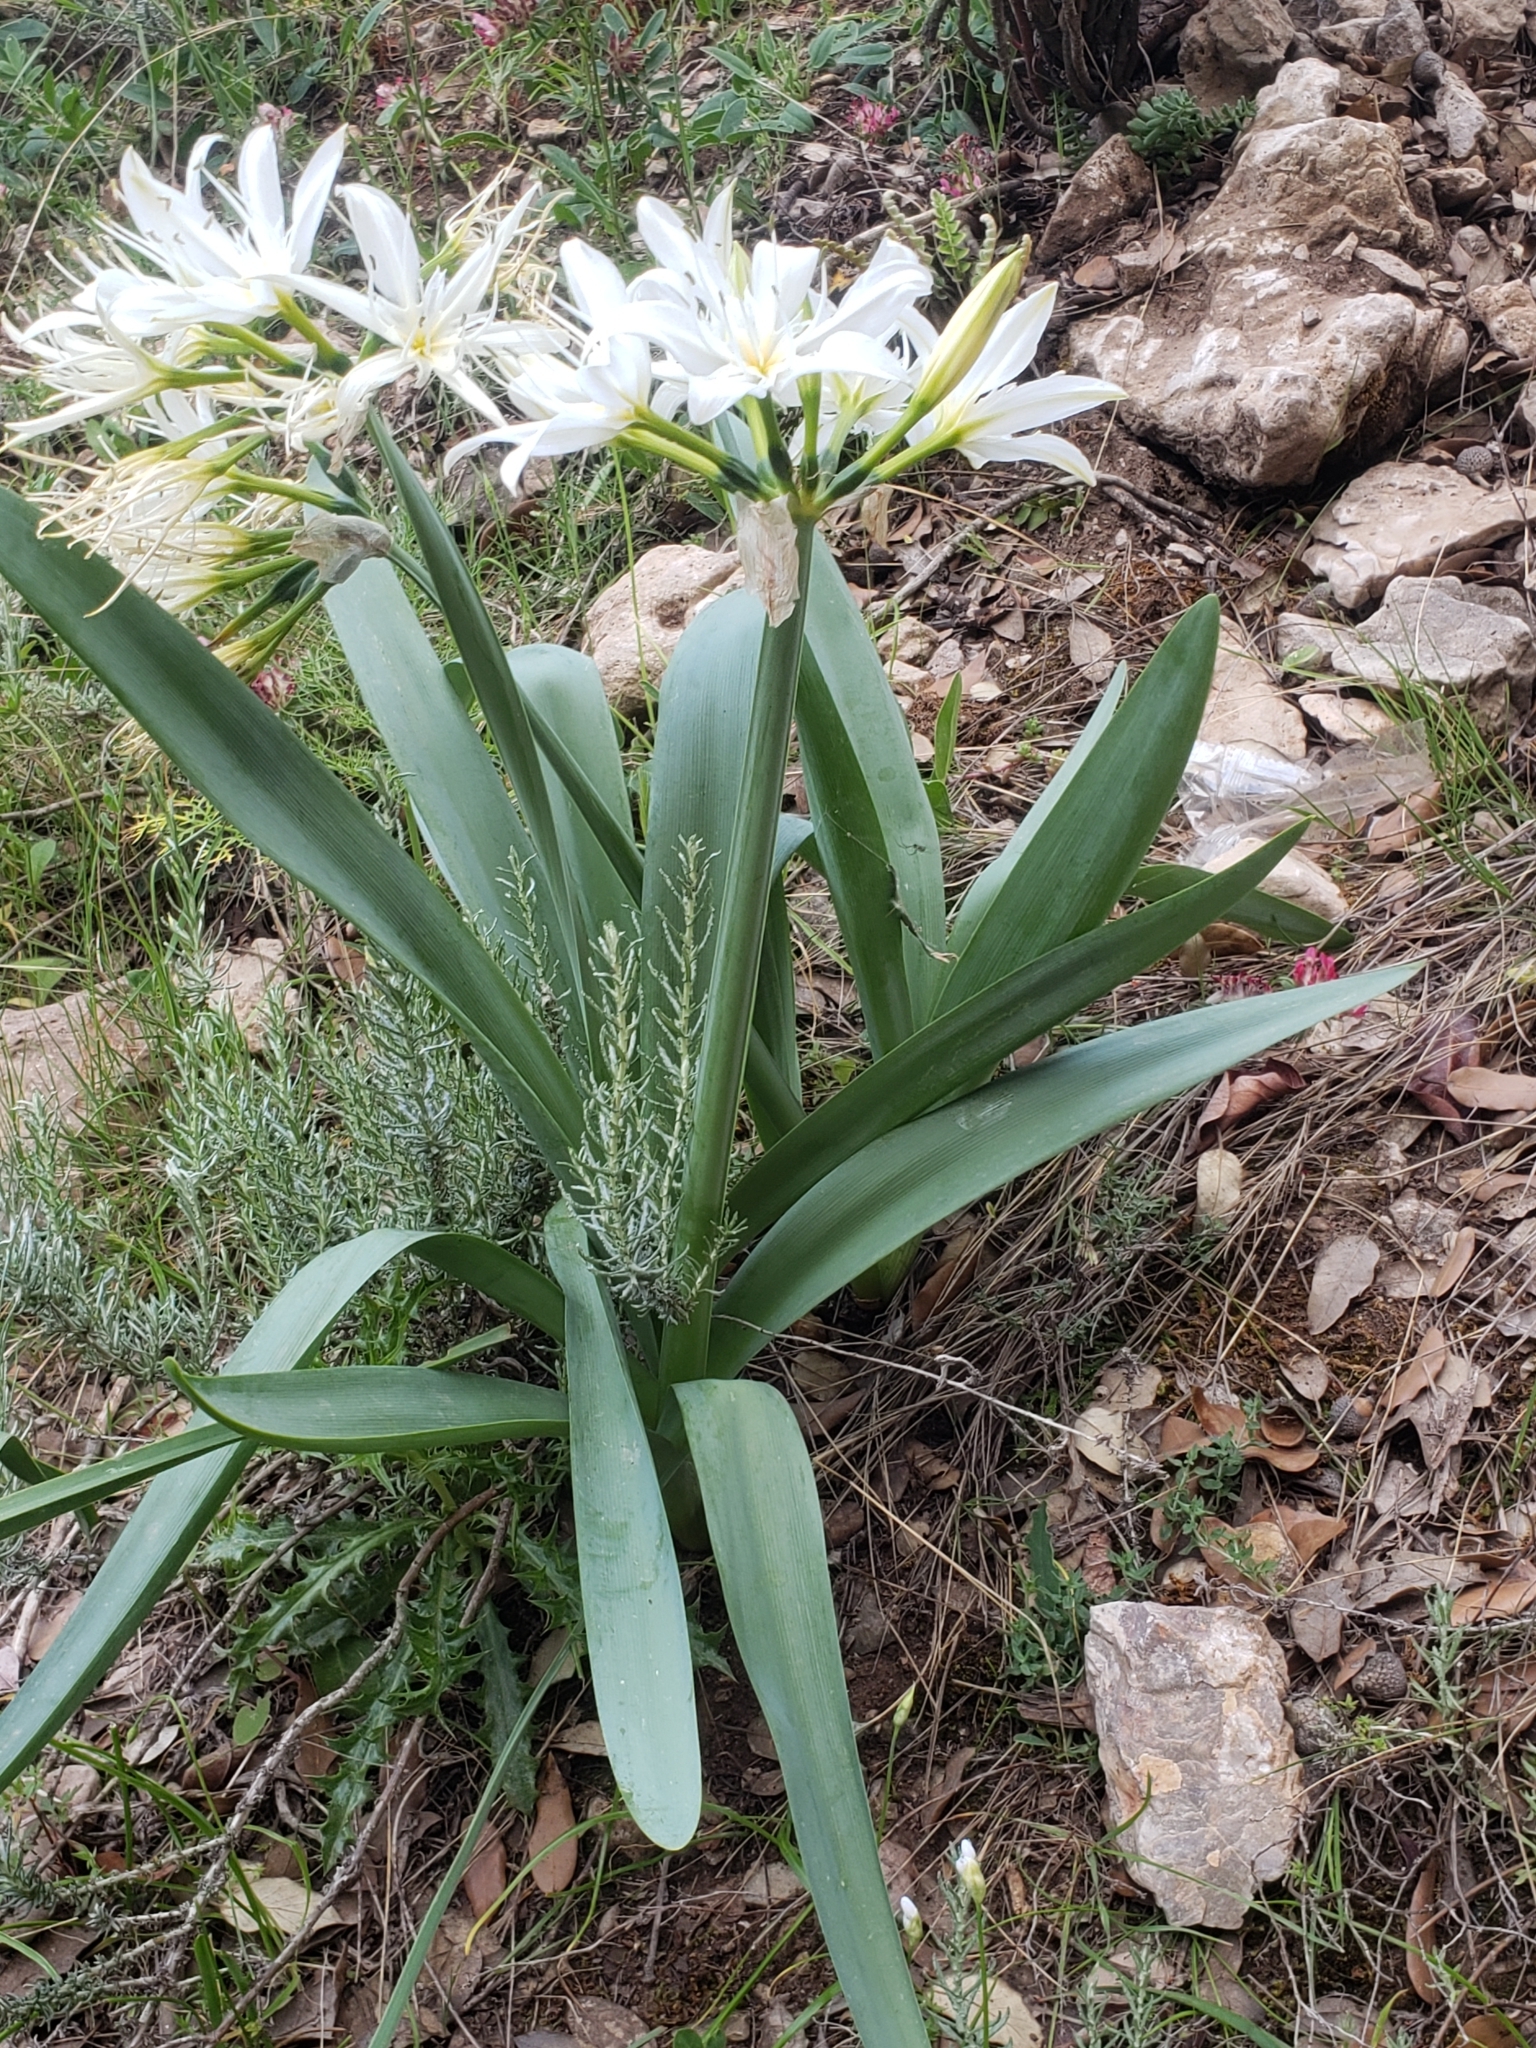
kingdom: Plantae
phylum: Tracheophyta
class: Liliopsida
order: Asparagales
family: Amaryllidaceae
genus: Pancratium
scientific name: Pancratium illyricum
